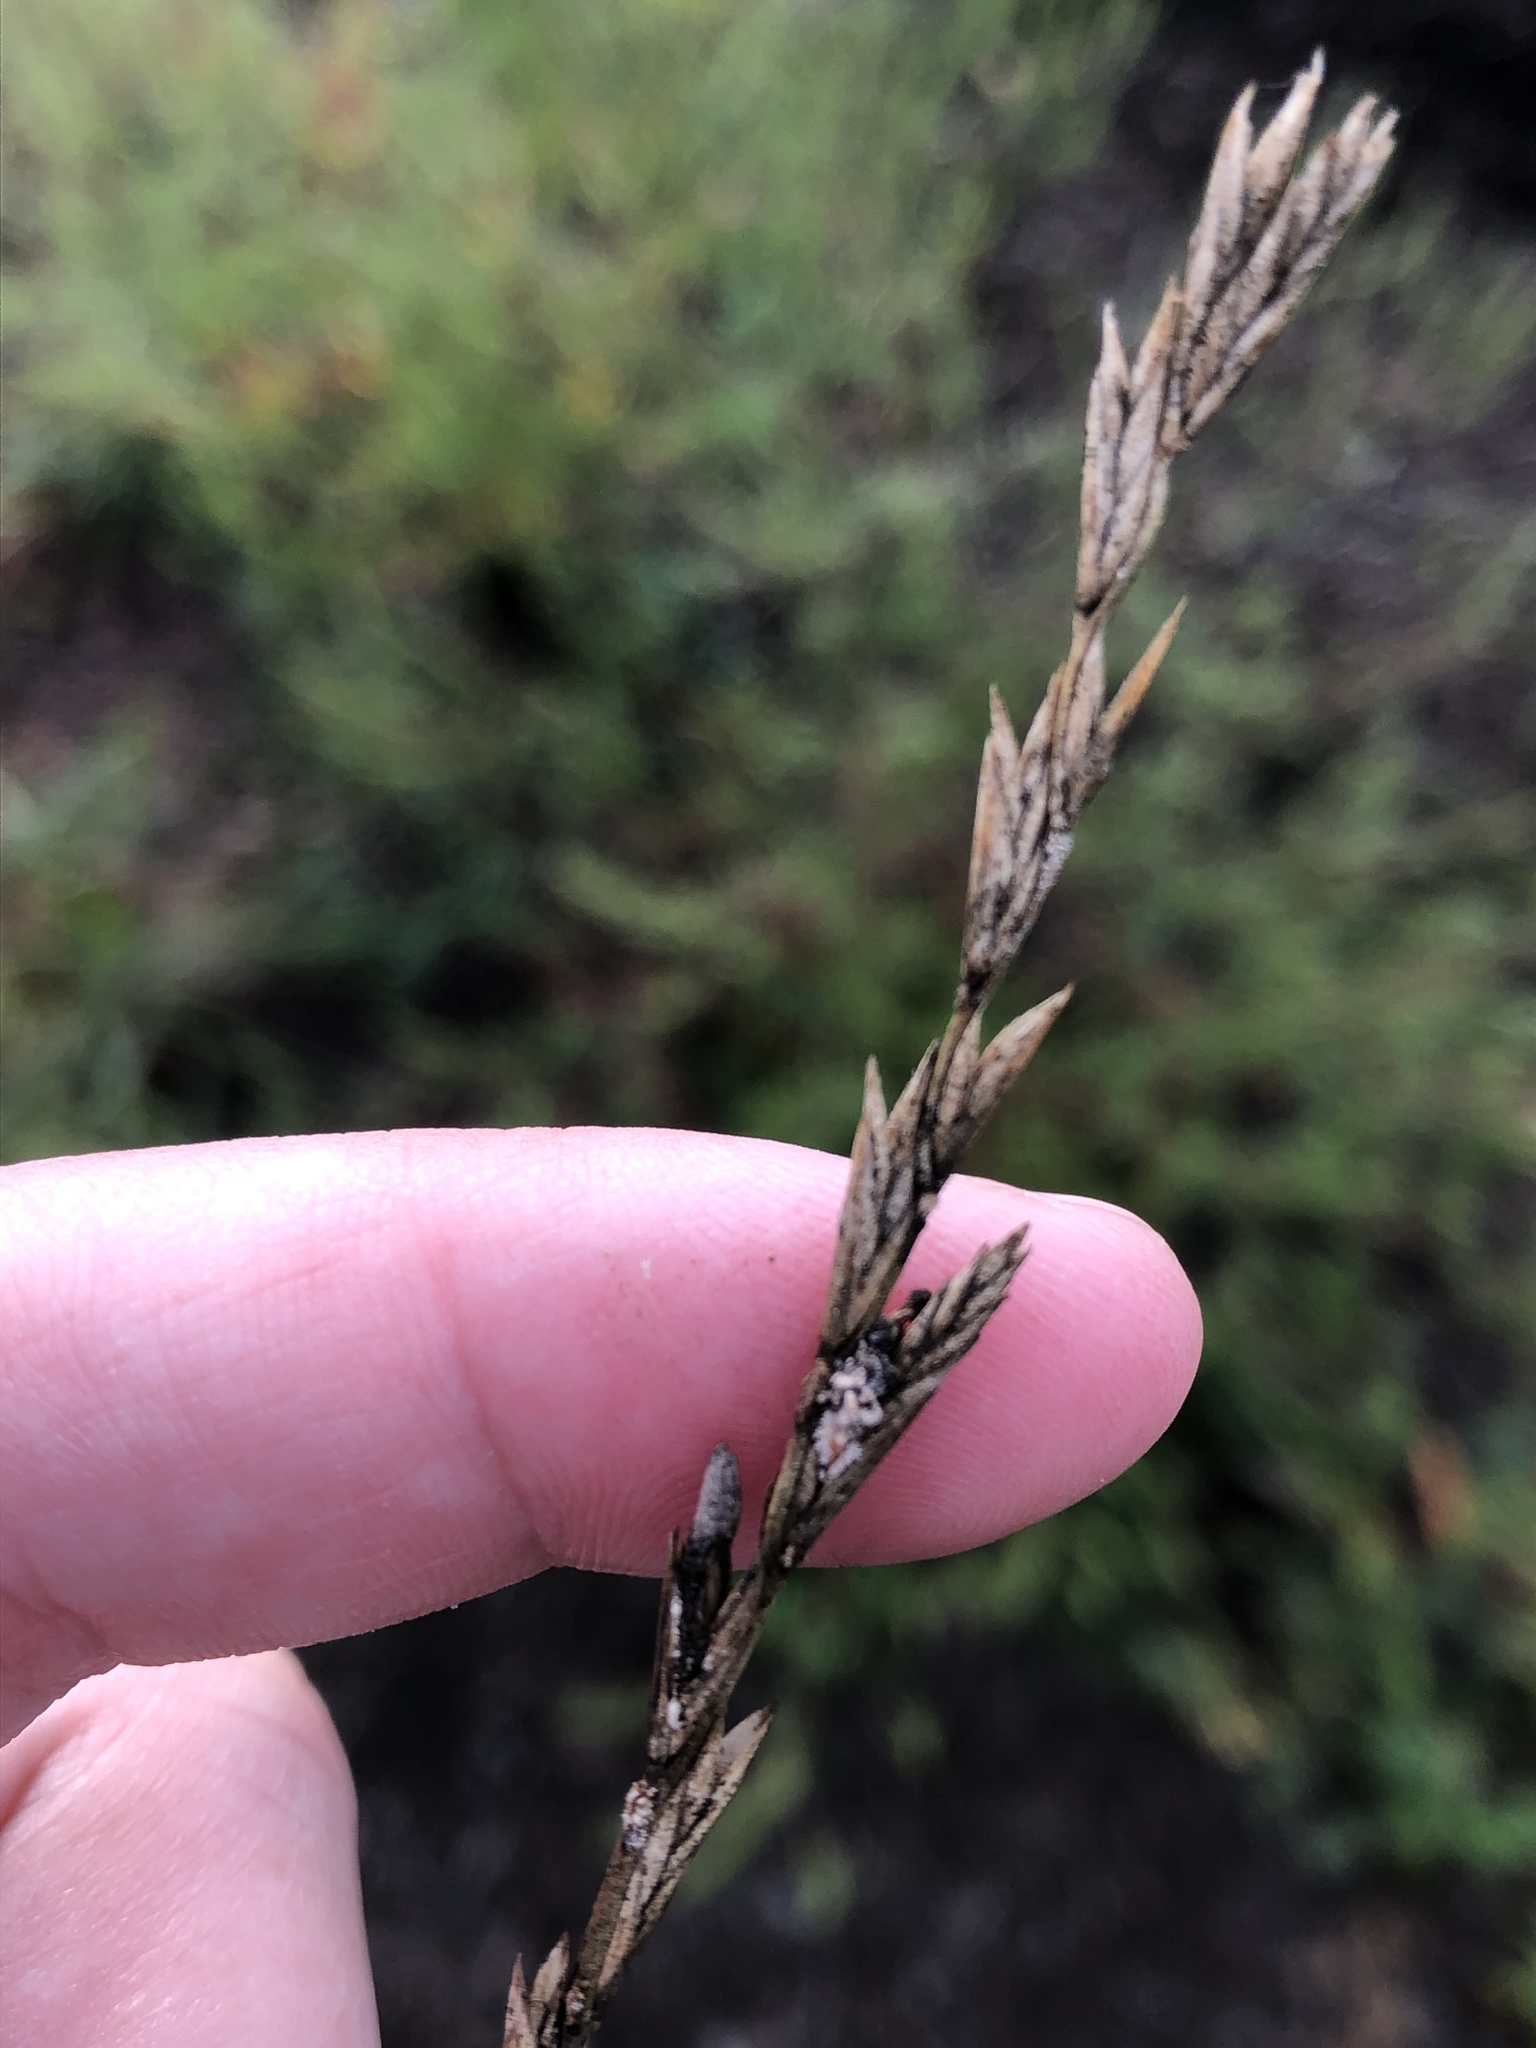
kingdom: Fungi
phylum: Ascomycota
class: Sordariomycetes
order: Hypocreales
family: Clavicipitaceae
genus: Claviceps
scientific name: Claviceps purpurea
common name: Rye ergot
